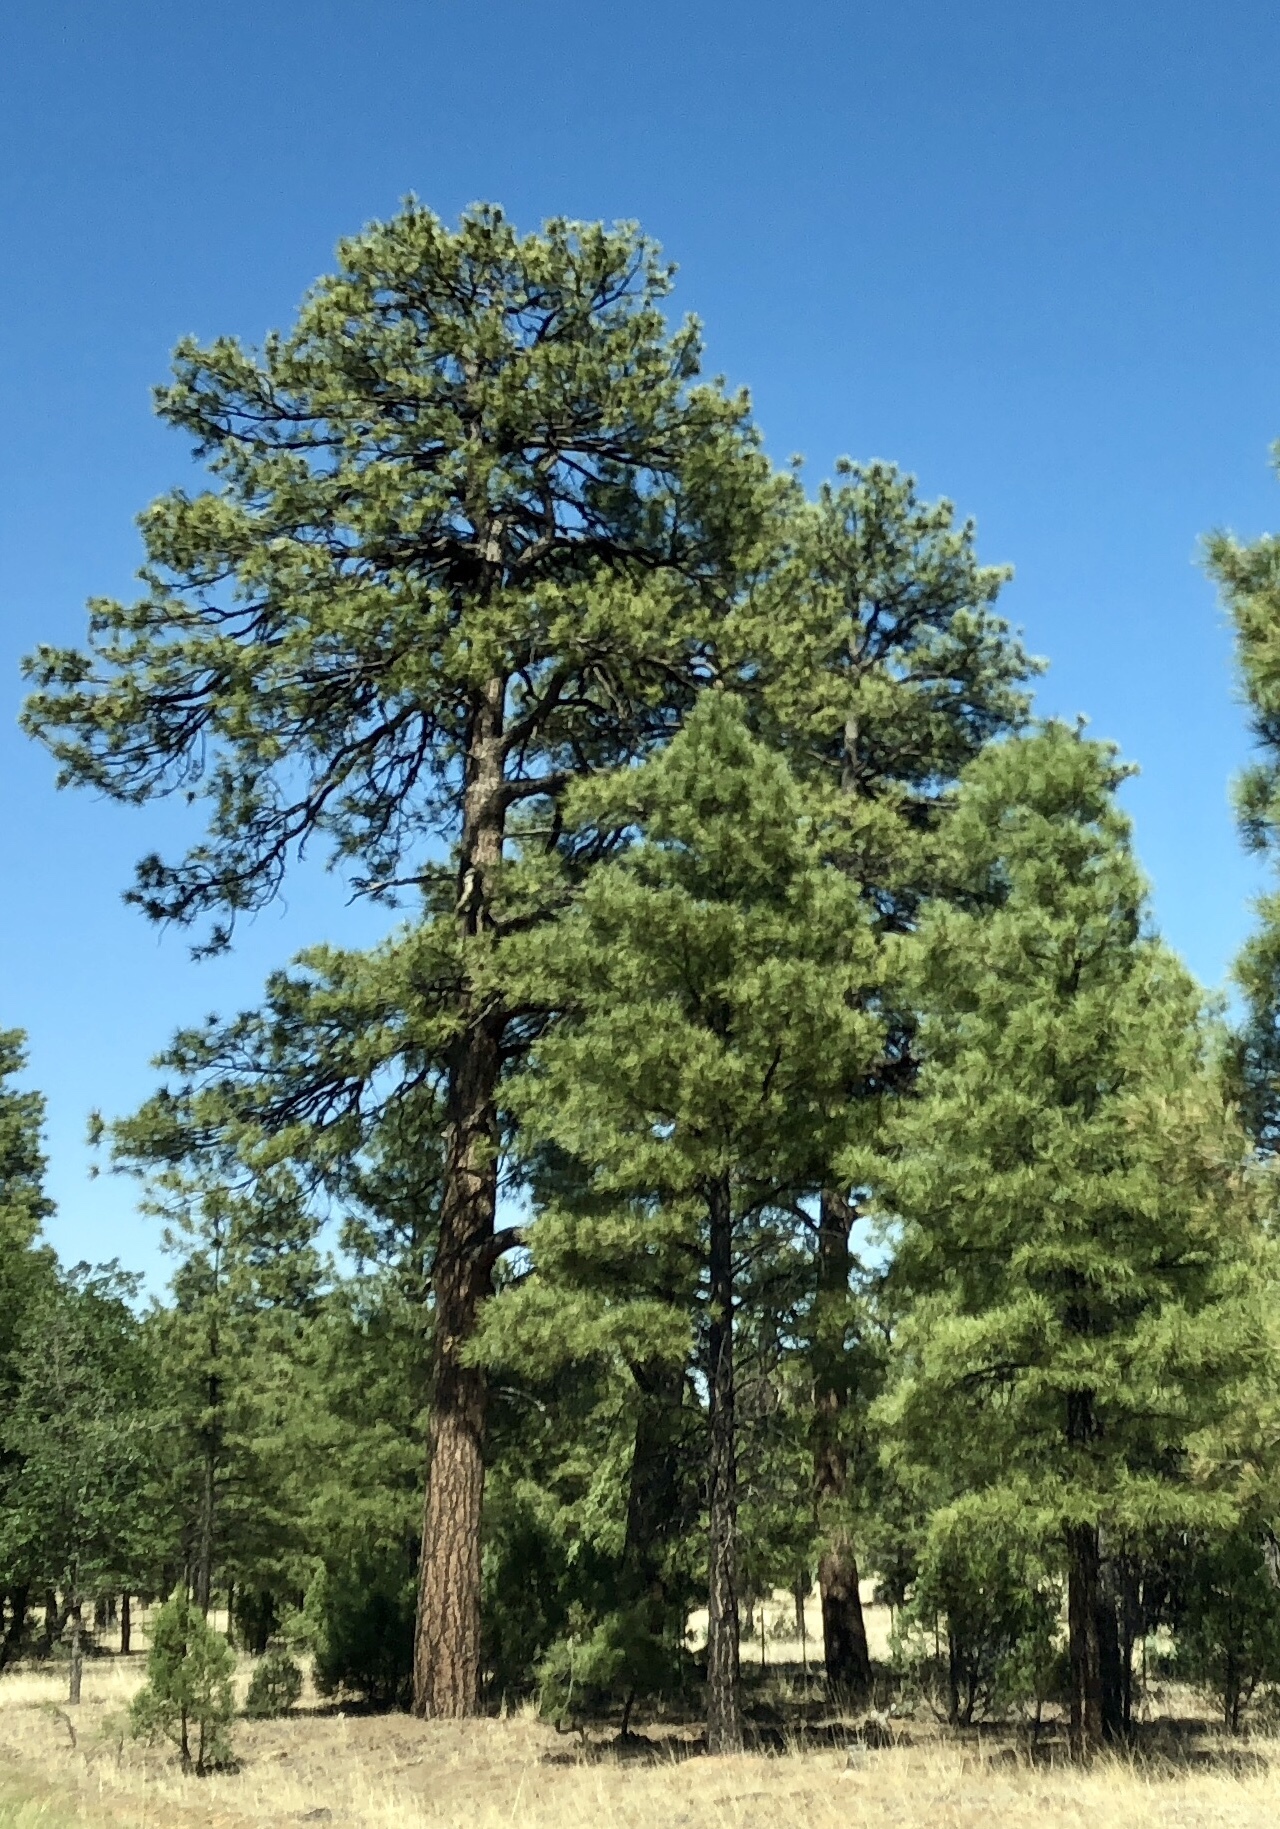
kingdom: Plantae
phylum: Tracheophyta
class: Pinopsida
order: Pinales
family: Pinaceae
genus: Pinus
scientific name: Pinus ponderosa
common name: Western yellow-pine
